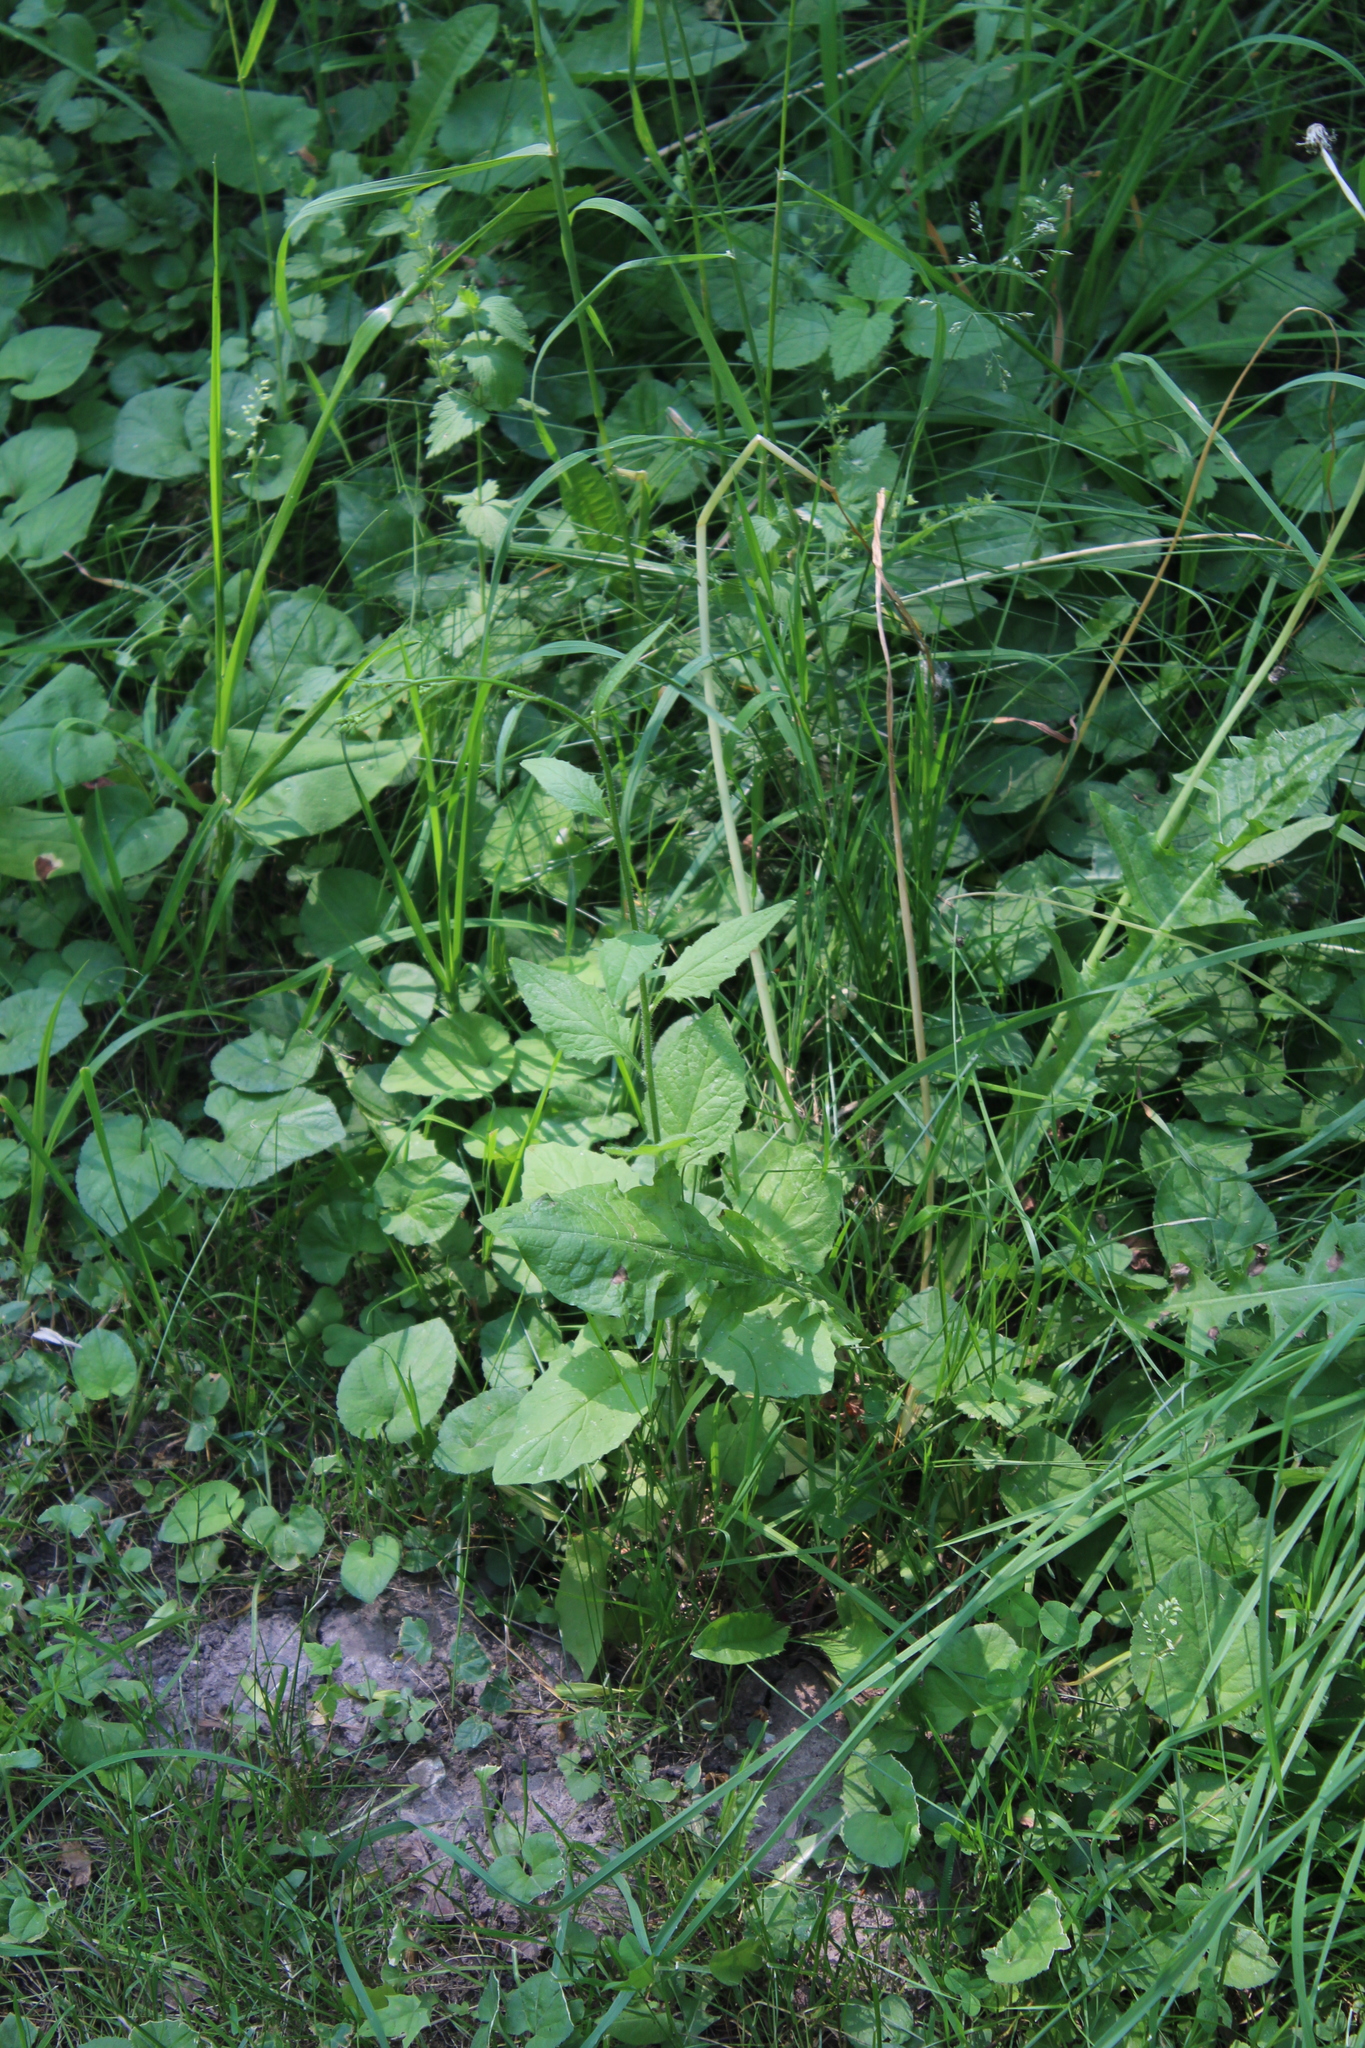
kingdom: Plantae
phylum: Tracheophyta
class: Magnoliopsida
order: Asterales
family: Asteraceae
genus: Lapsana
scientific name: Lapsana communis
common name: Nipplewort
